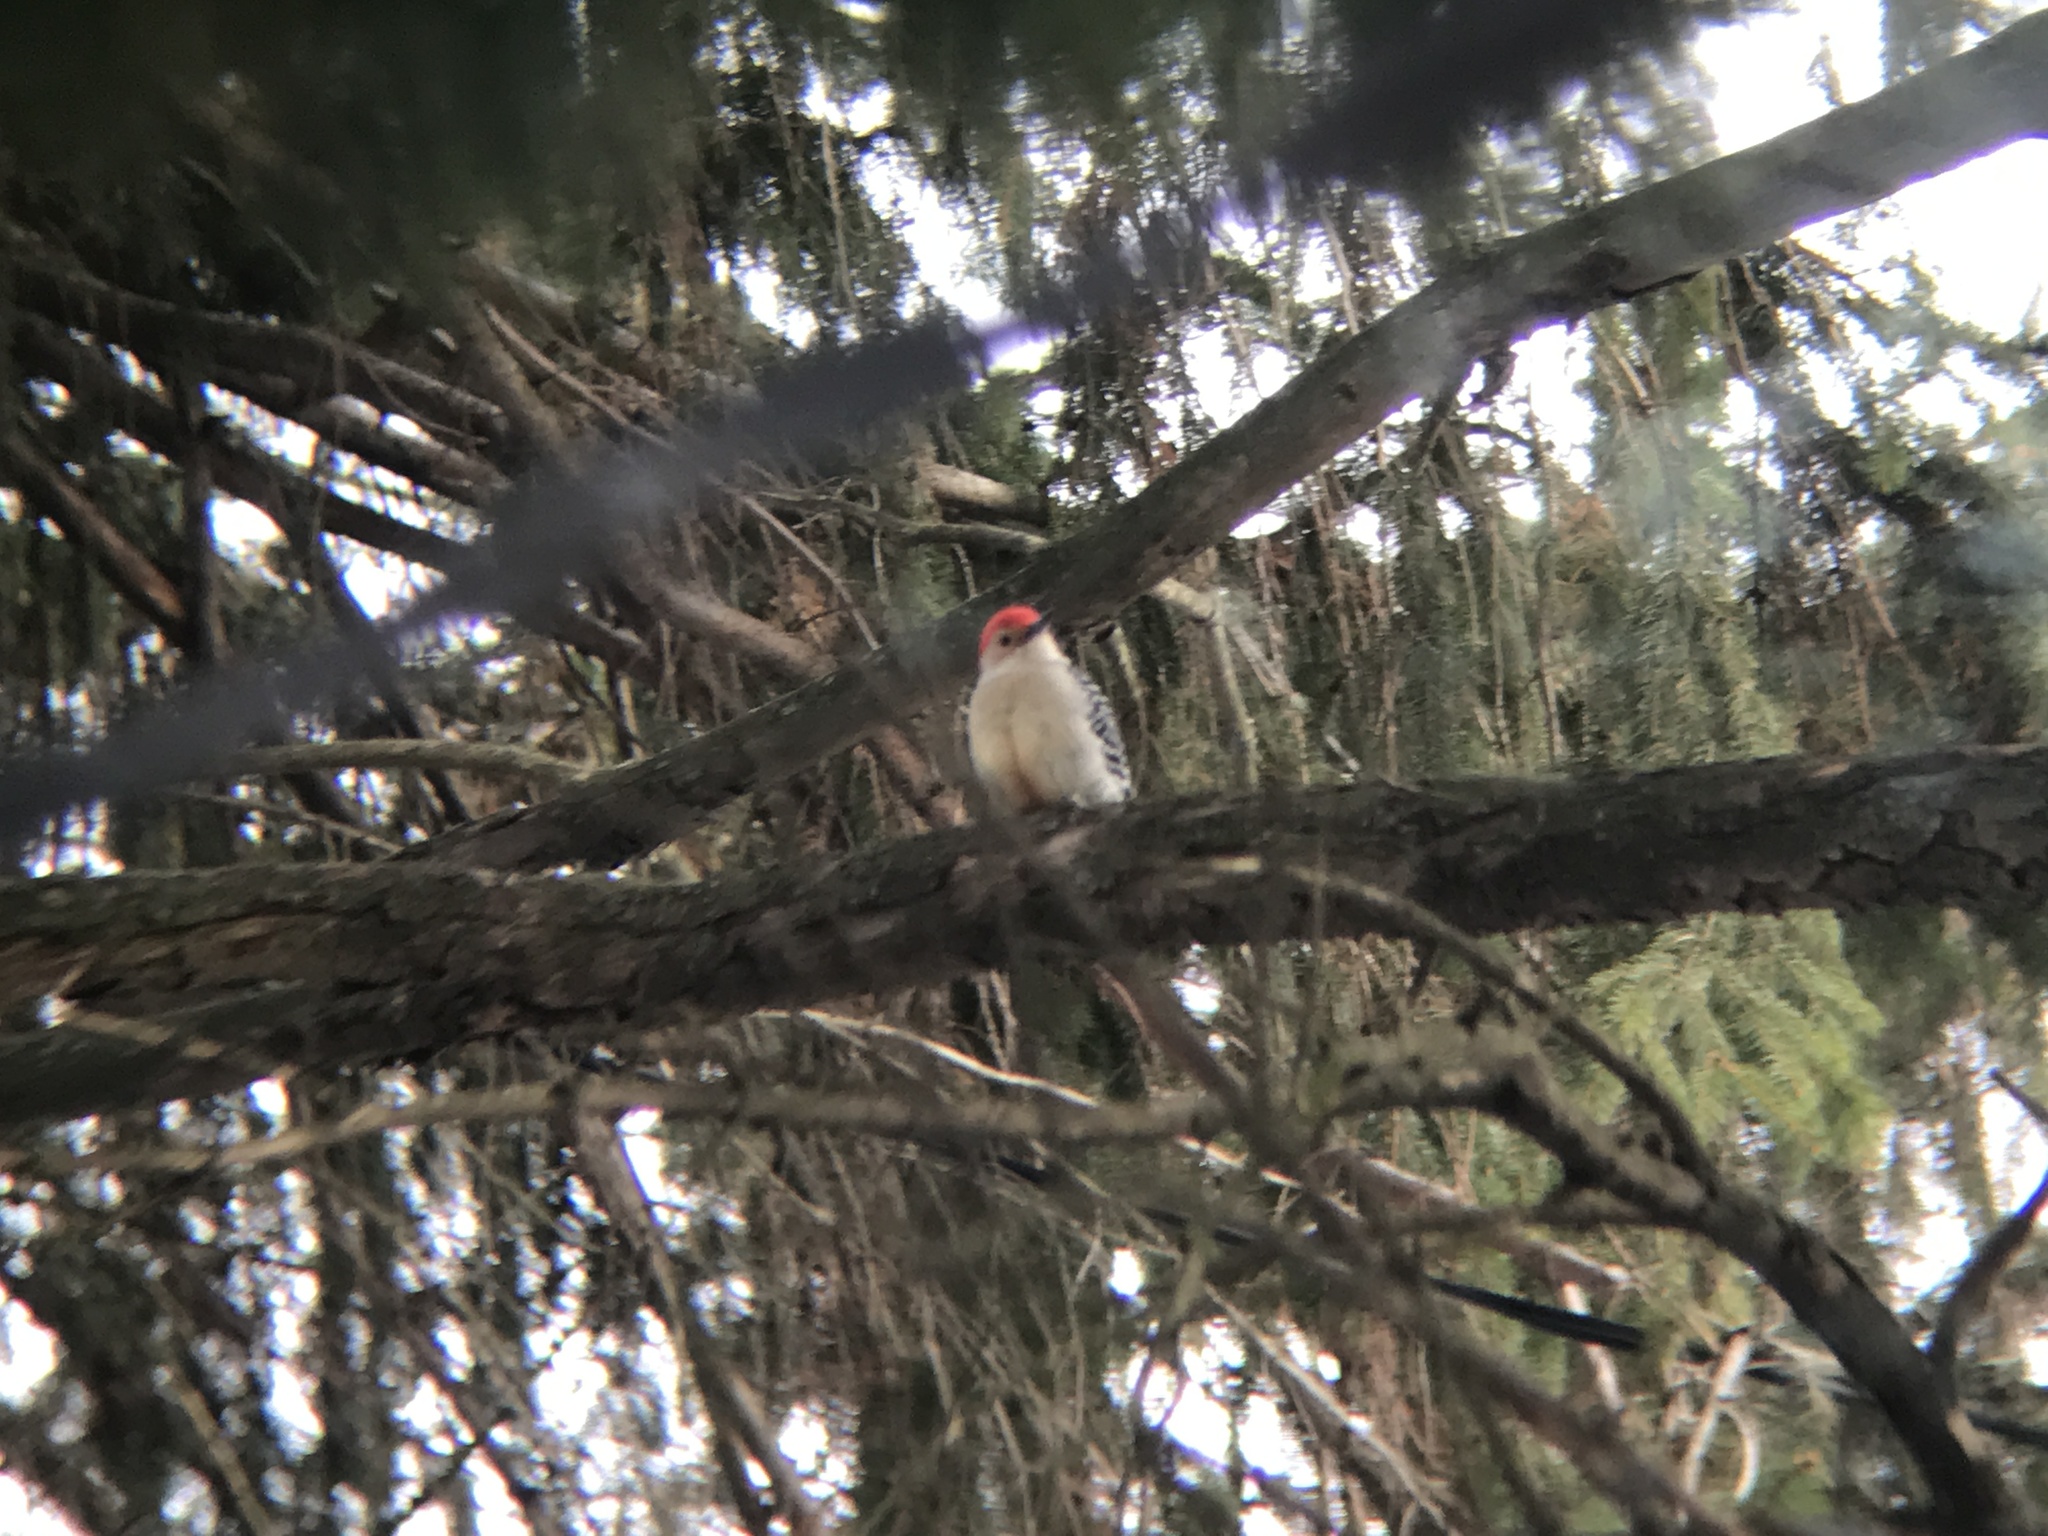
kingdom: Animalia
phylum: Chordata
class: Aves
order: Piciformes
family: Picidae
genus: Melanerpes
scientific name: Melanerpes carolinus
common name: Red-bellied woodpecker
